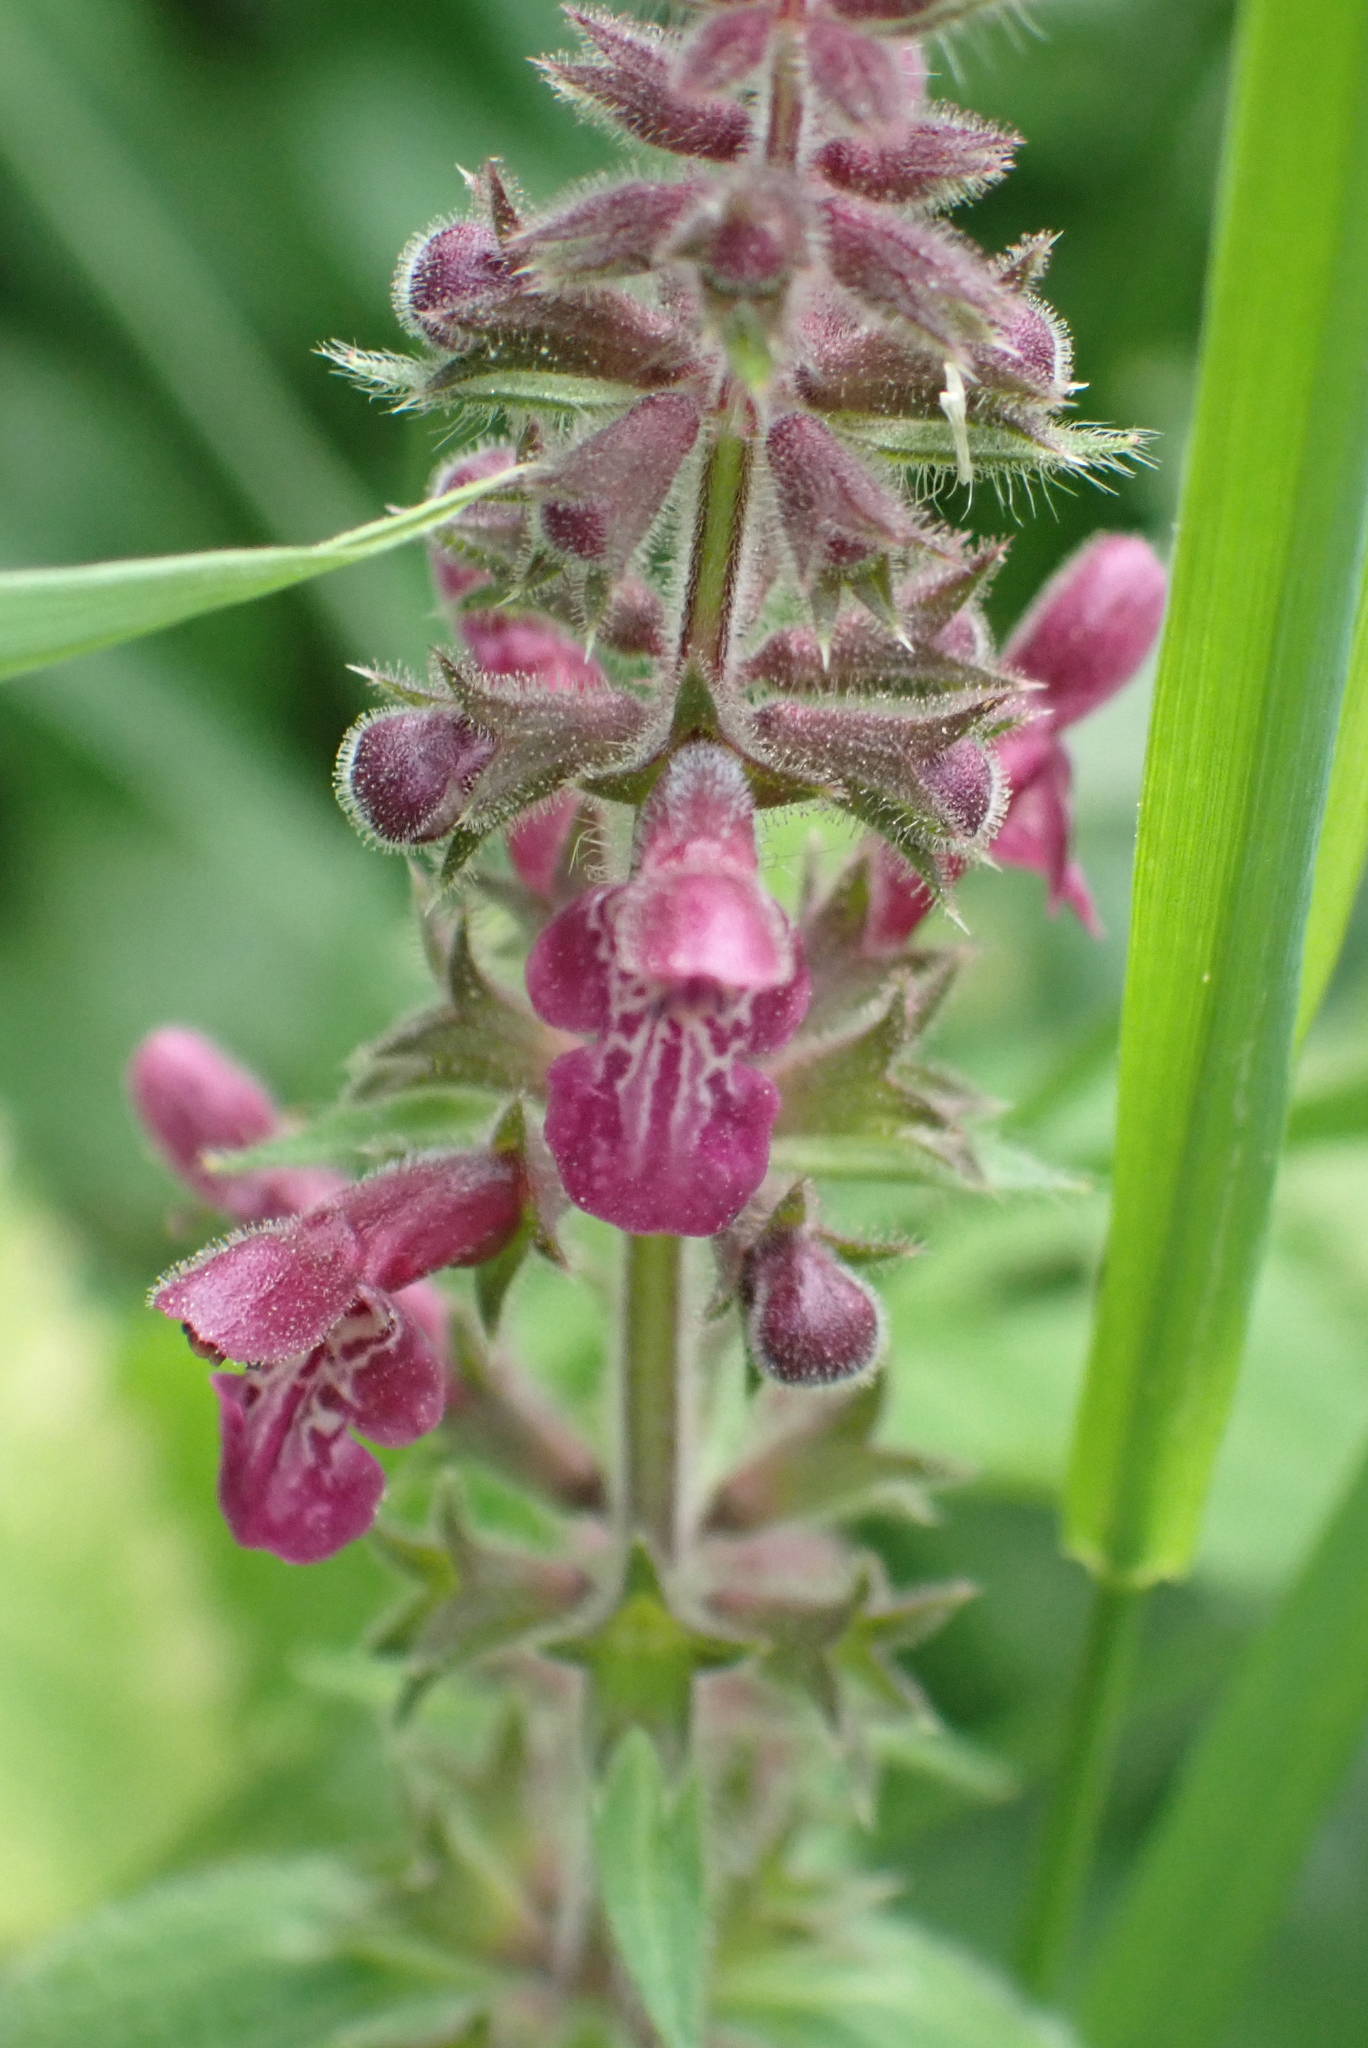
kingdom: Plantae
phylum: Tracheophyta
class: Magnoliopsida
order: Lamiales
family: Lamiaceae
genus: Stachys
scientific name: Stachys sylvatica
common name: Hedge woundwort
